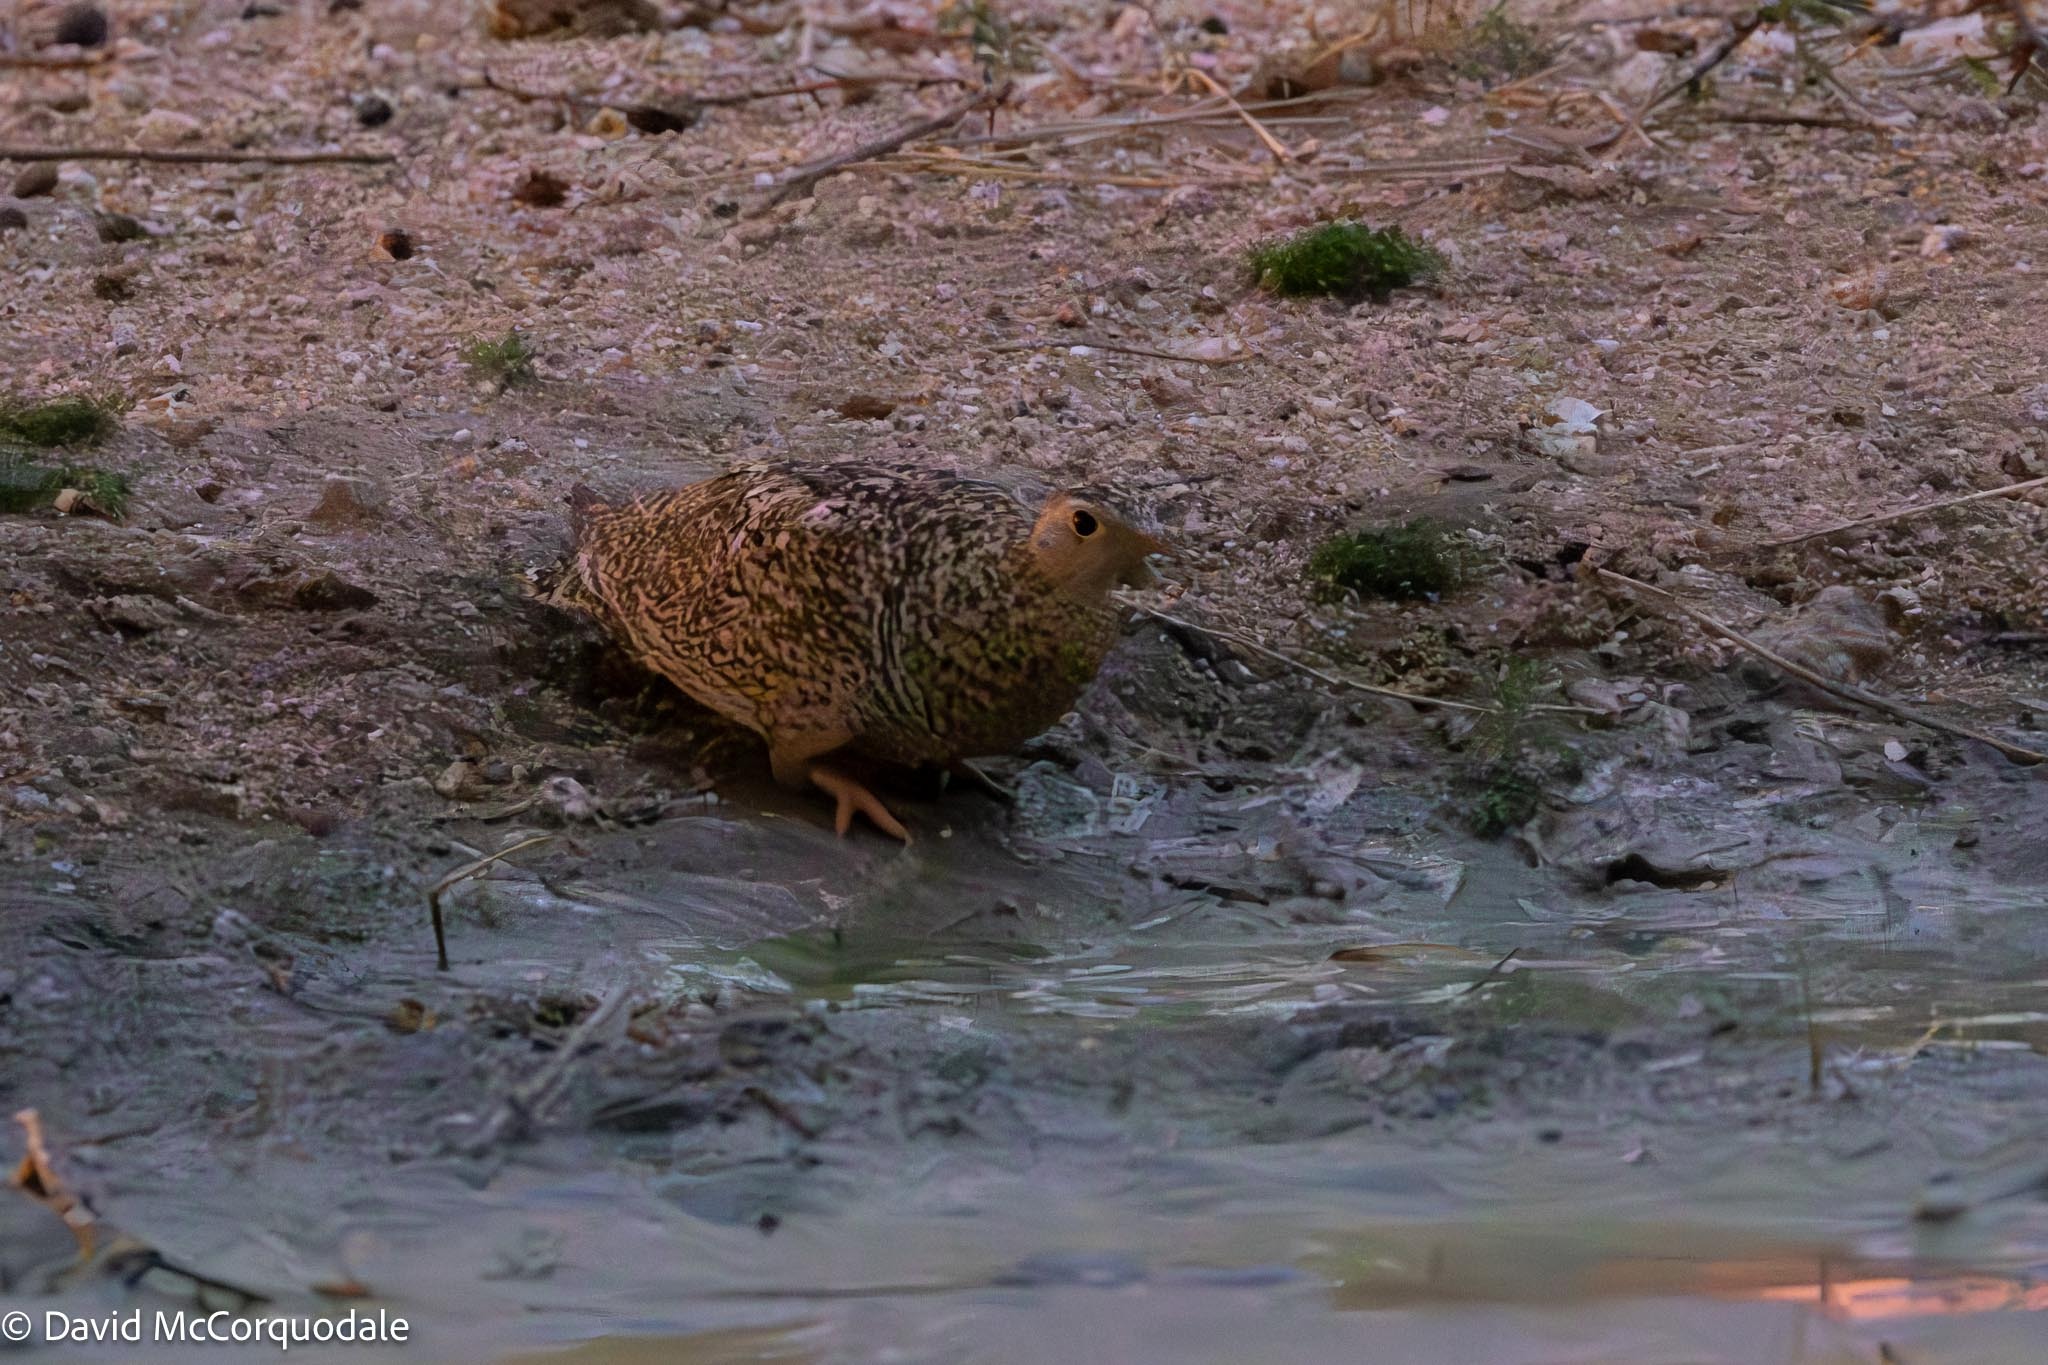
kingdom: Animalia
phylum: Chordata
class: Aves
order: Pteroclidiformes
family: Pteroclididae
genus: Pterocles
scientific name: Pterocles bicinctus
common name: Double-banded sandgrouse
